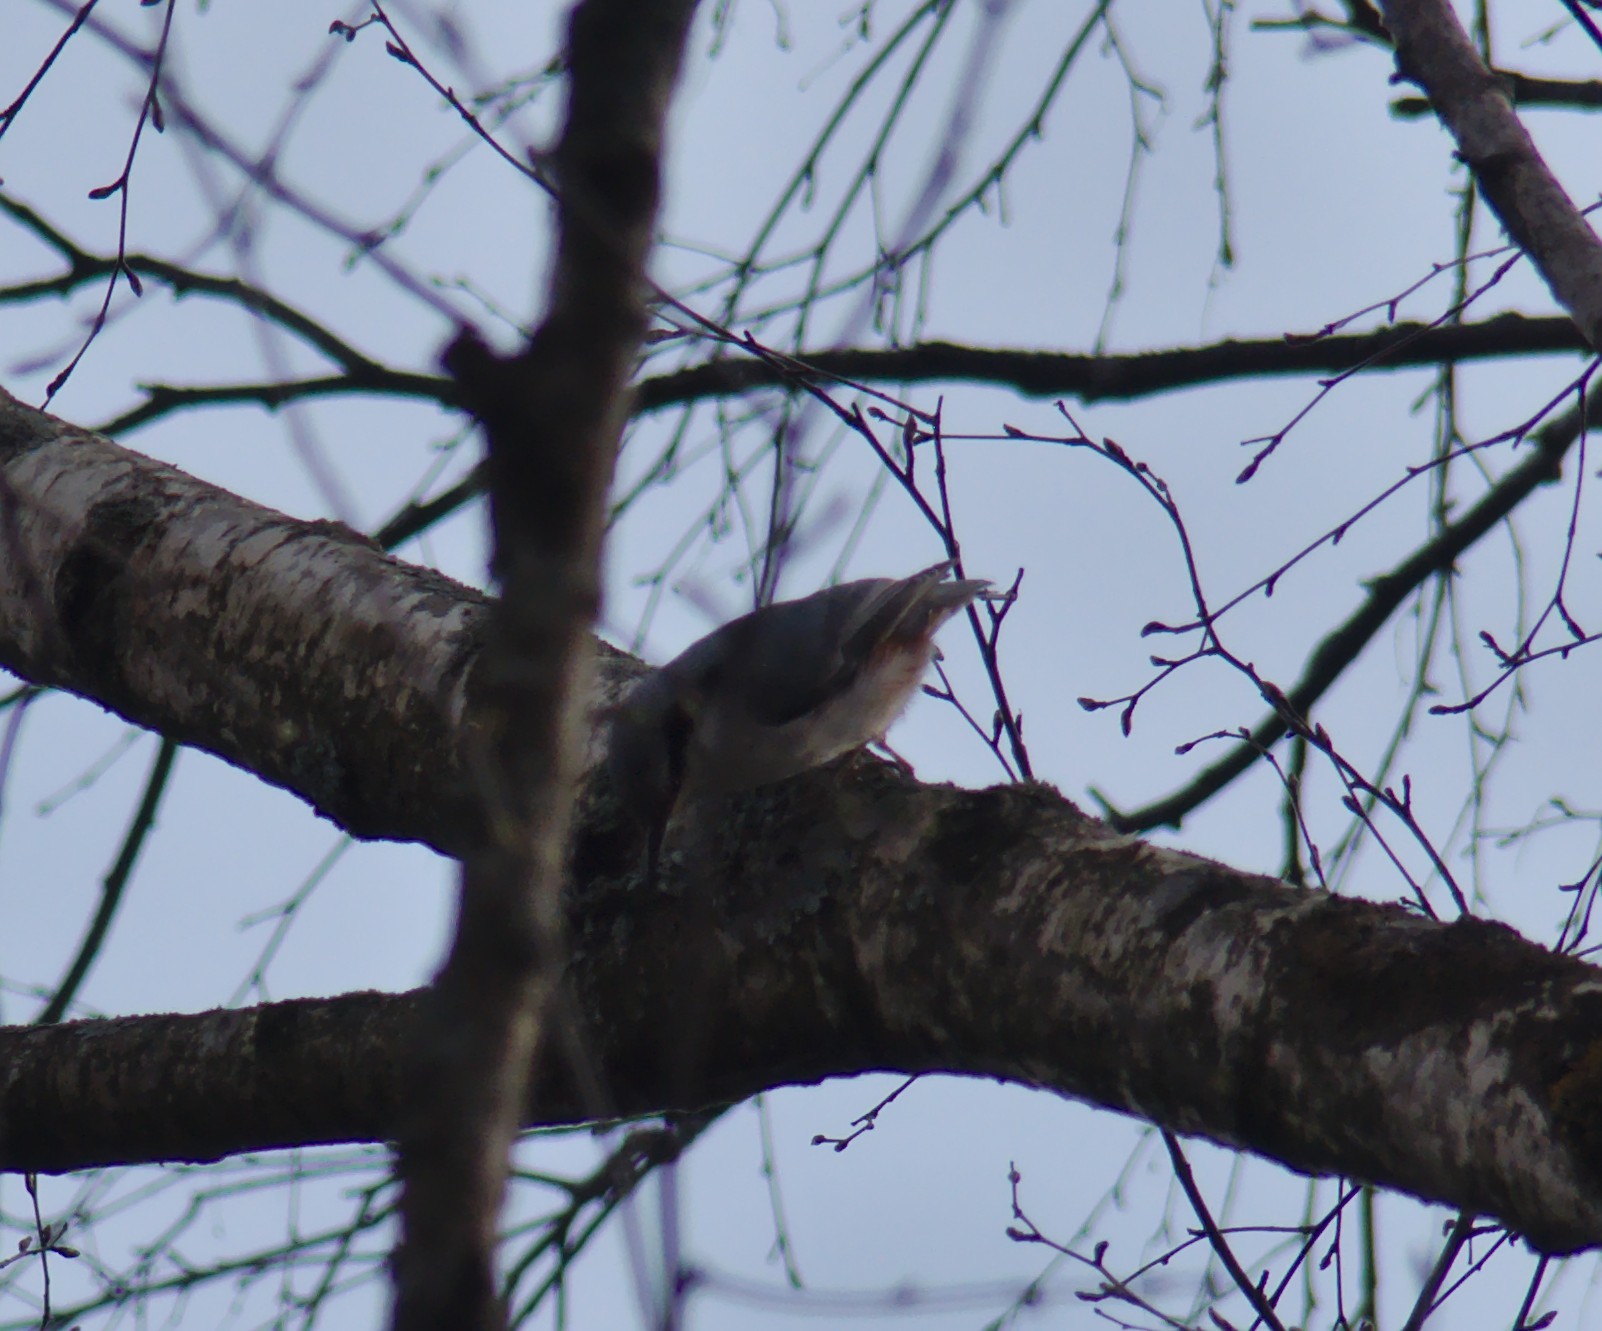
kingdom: Animalia
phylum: Chordata
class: Aves
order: Passeriformes
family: Sittidae
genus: Sitta
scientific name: Sitta europaea
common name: Eurasian nuthatch
